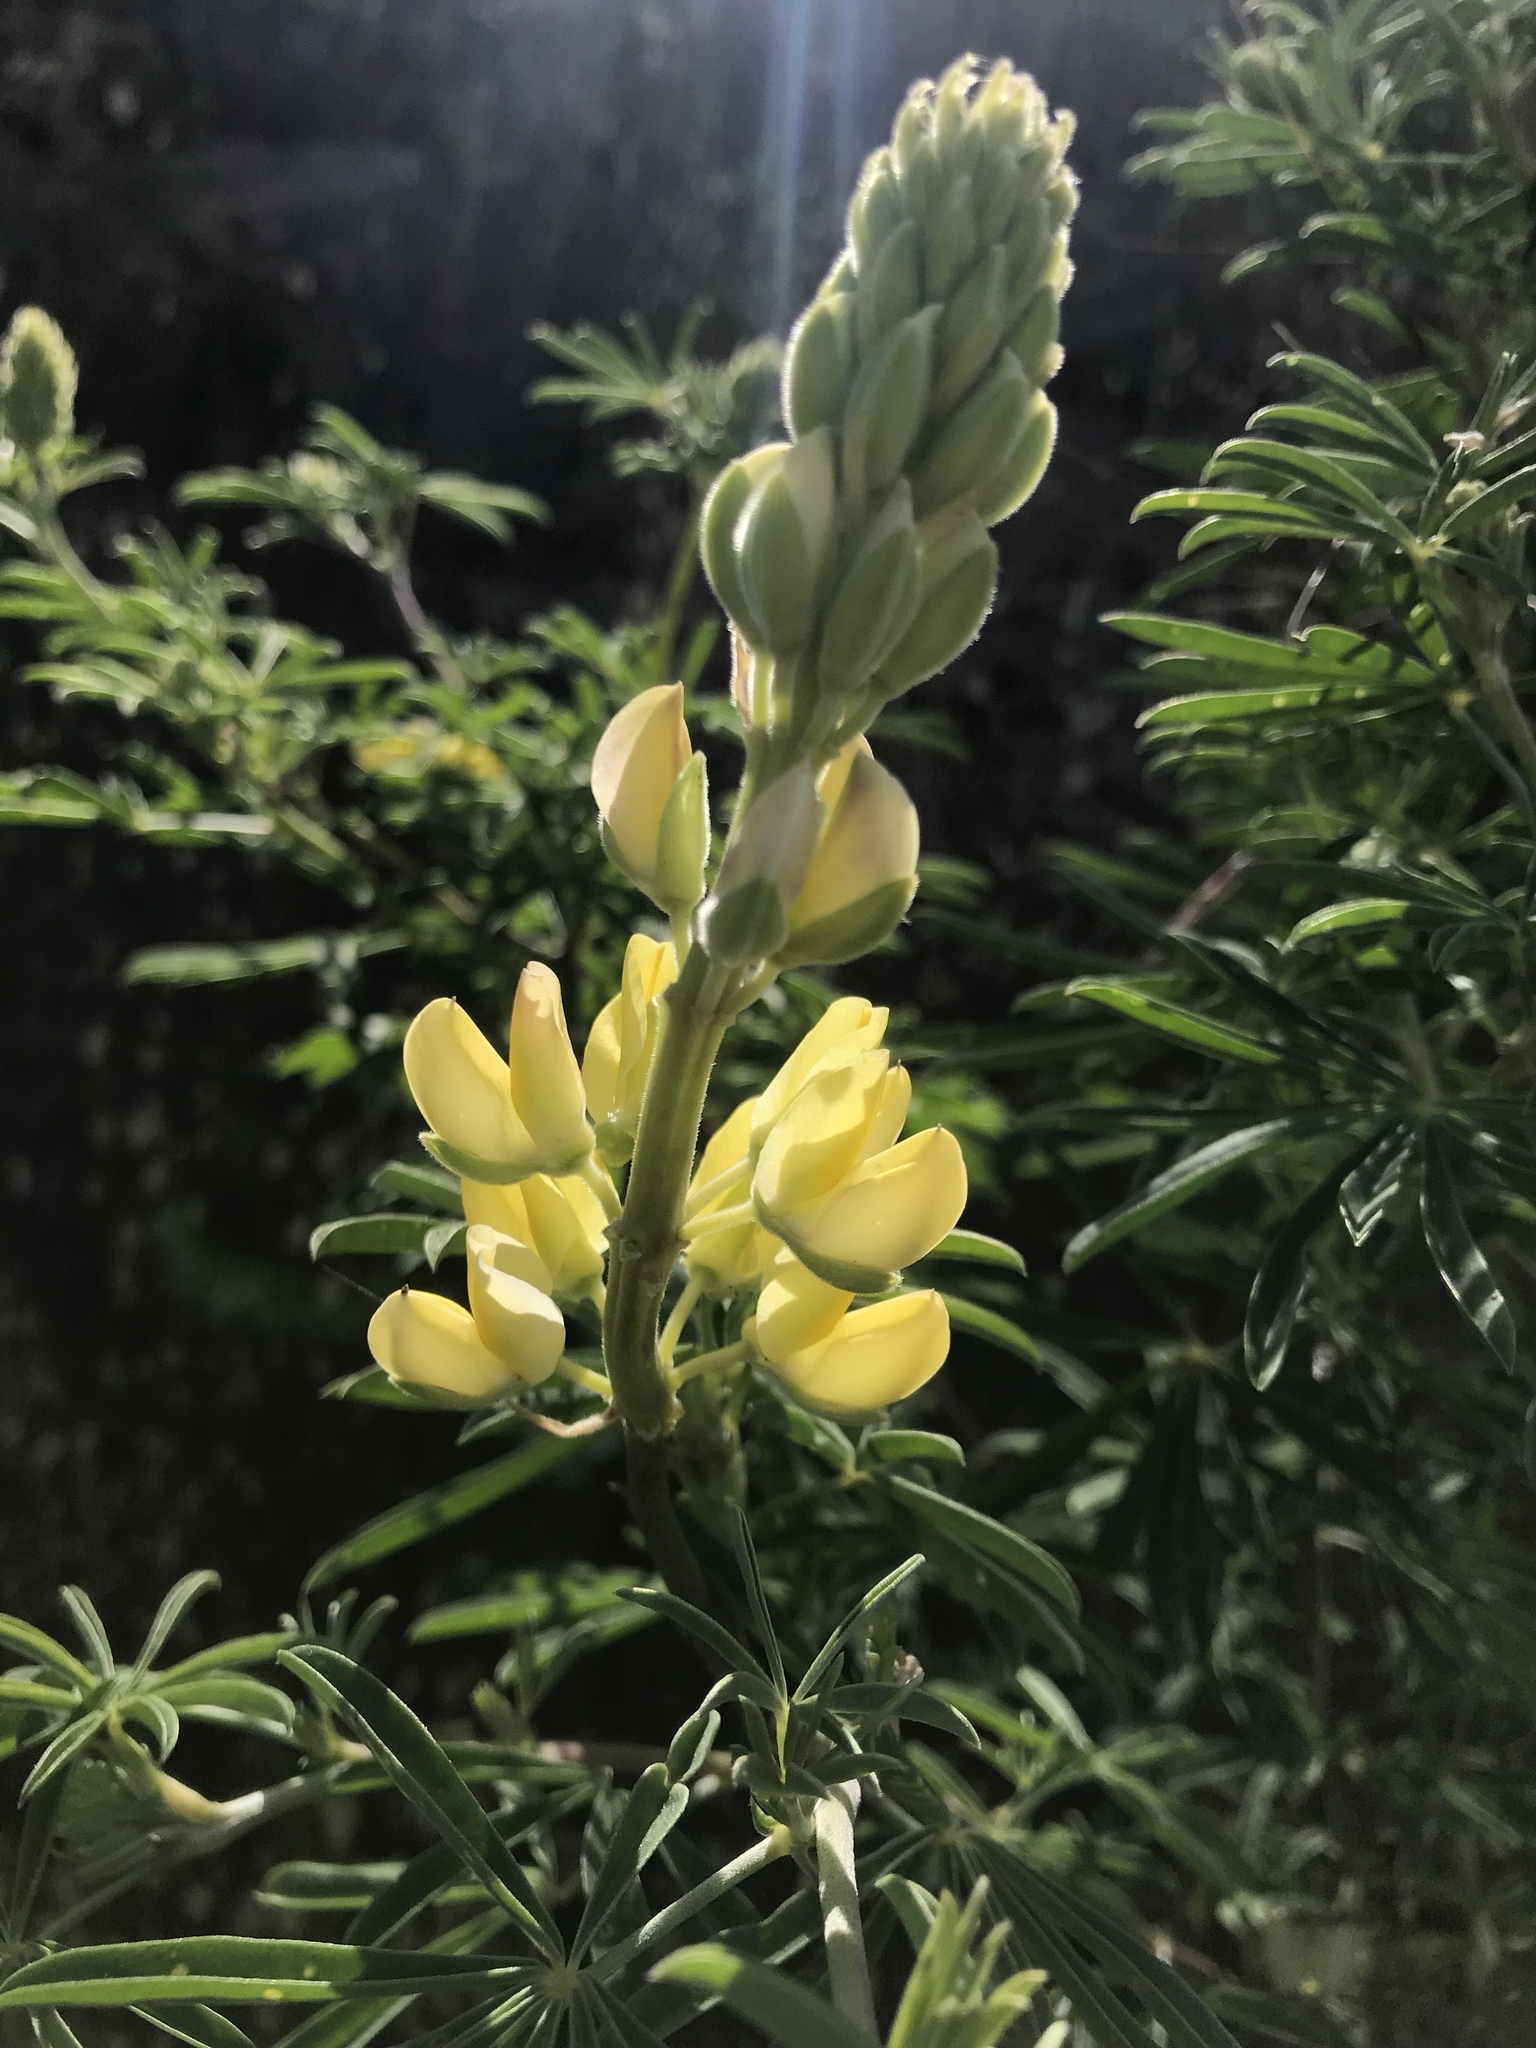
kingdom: Plantae
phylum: Tracheophyta
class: Magnoliopsida
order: Fabales
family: Fabaceae
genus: Lupinus
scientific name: Lupinus arboreus
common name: Yellow bush lupine
